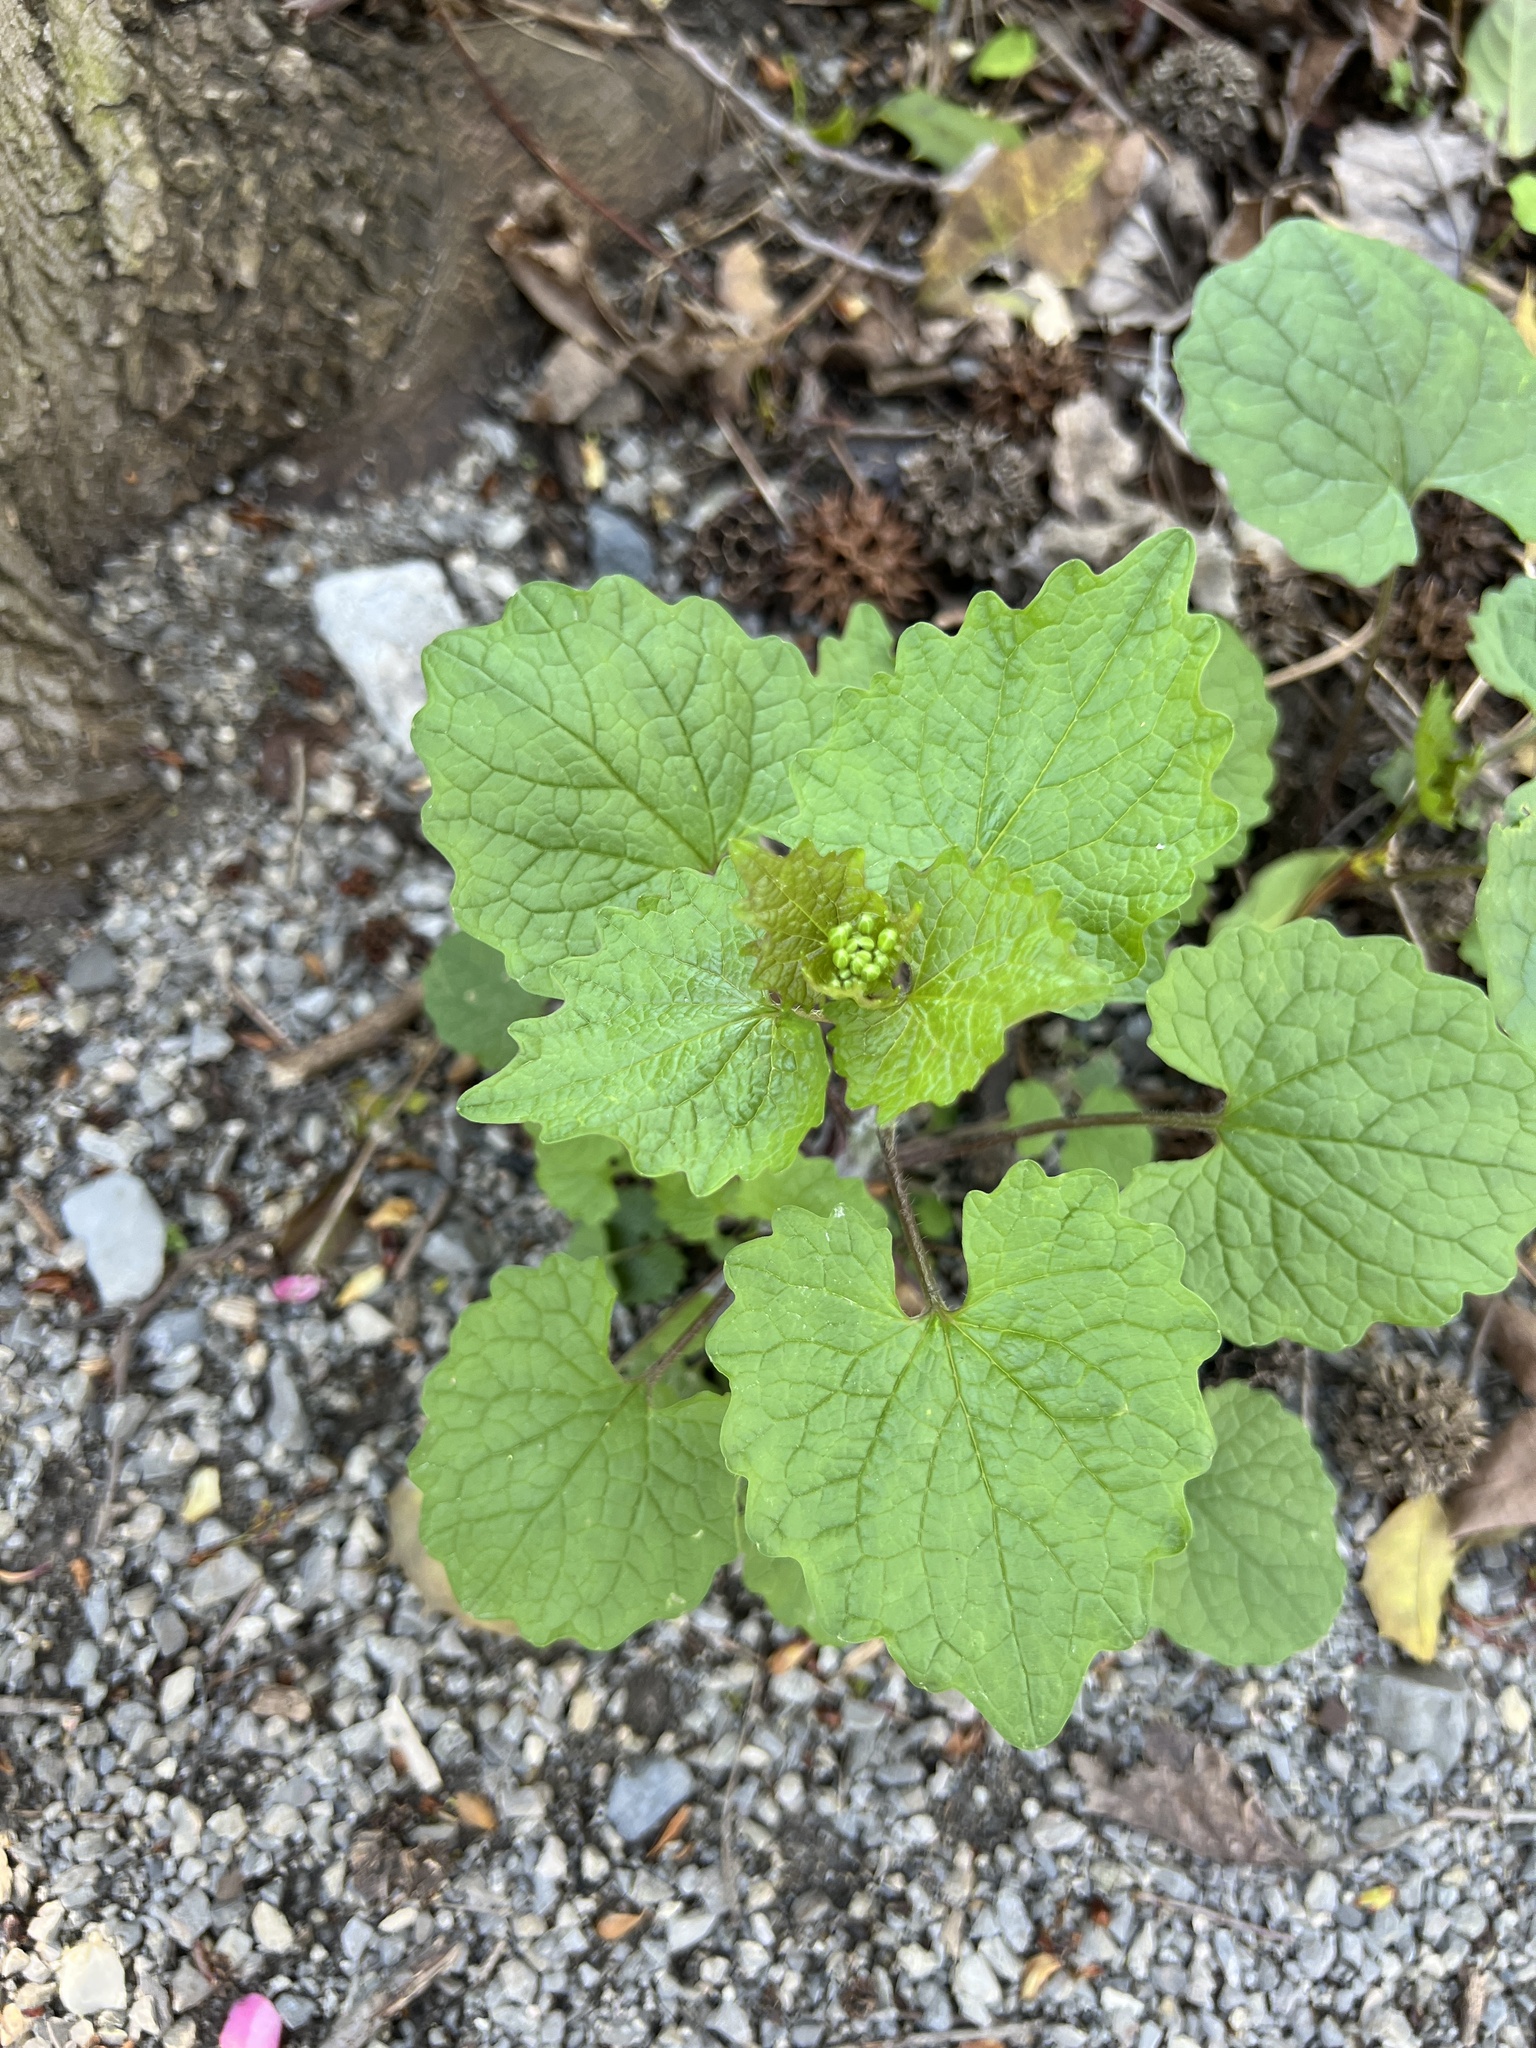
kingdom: Plantae
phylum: Tracheophyta
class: Magnoliopsida
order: Brassicales
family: Brassicaceae
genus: Alliaria
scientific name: Alliaria petiolata
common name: Garlic mustard
